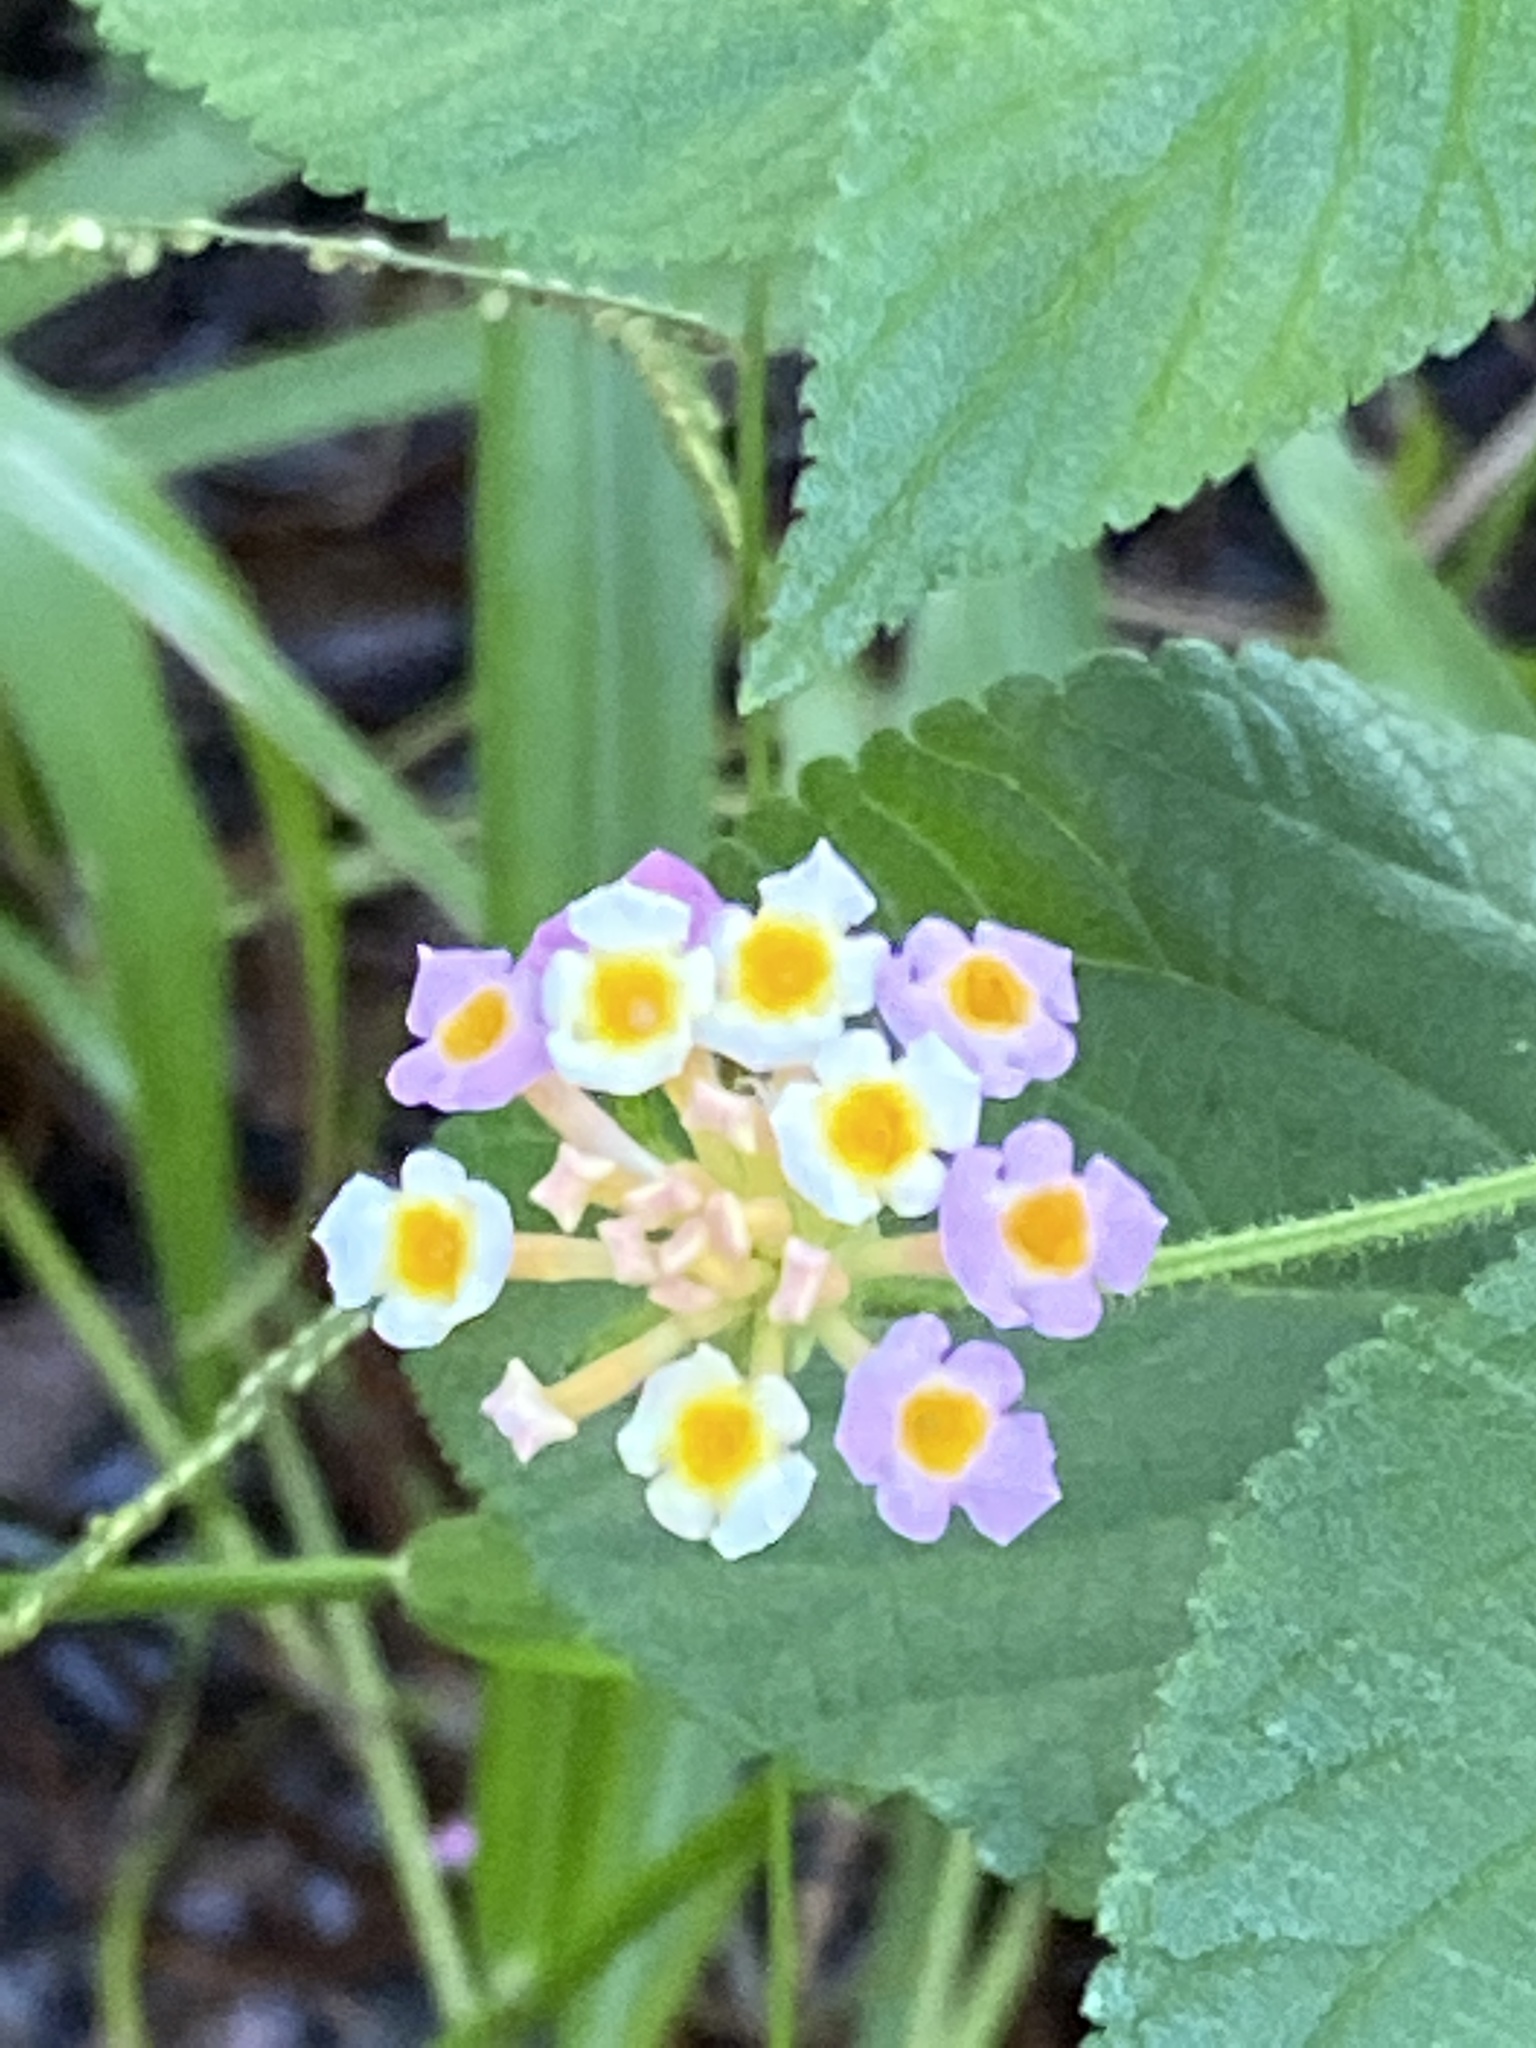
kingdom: Plantae
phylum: Tracheophyta
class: Magnoliopsida
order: Lamiales
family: Verbenaceae
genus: Lantana
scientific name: Lantana camara
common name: Lantana
